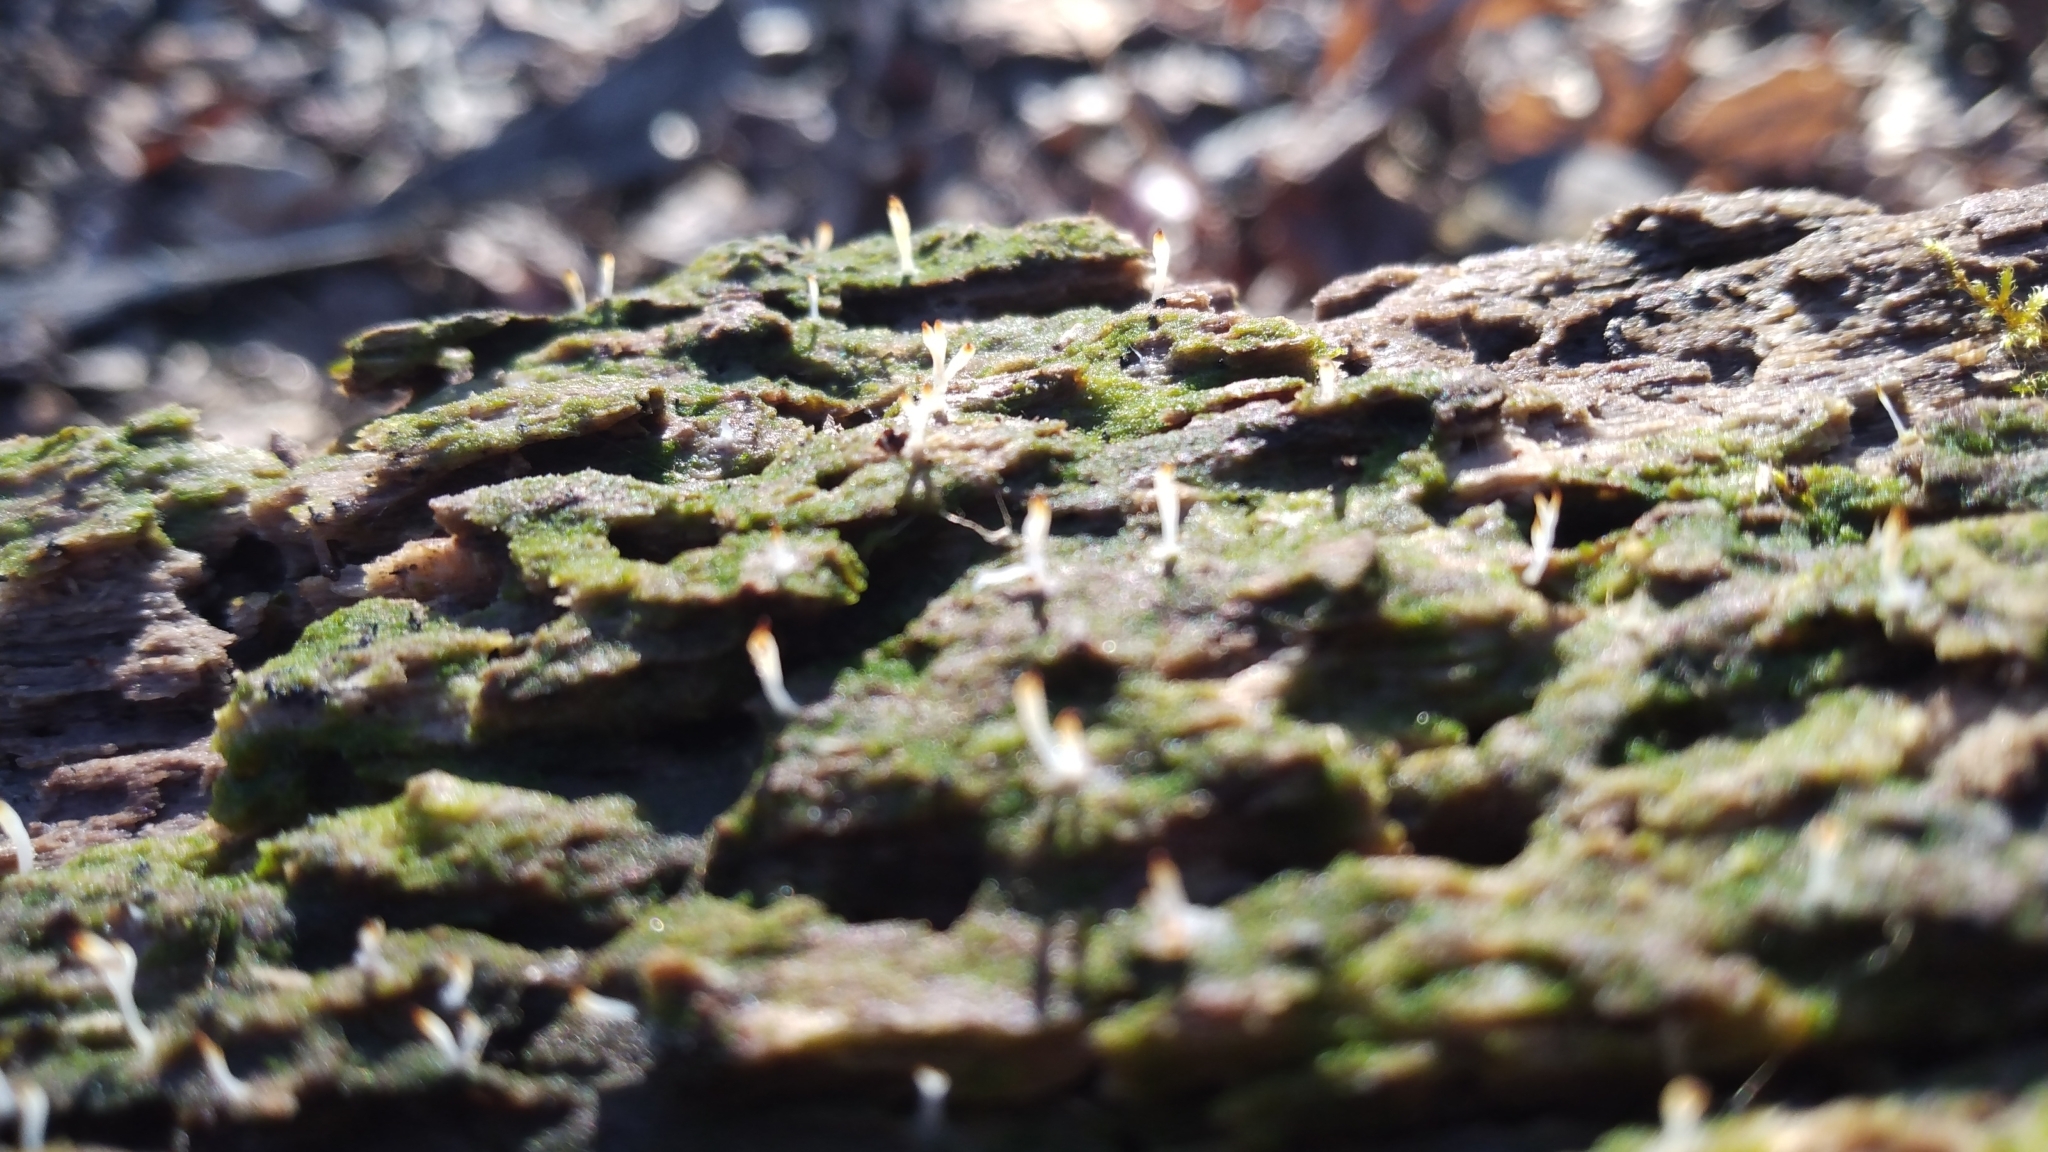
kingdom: Fungi
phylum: Basidiomycota
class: Agaricomycetes
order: Cantharellales
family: Hydnaceae
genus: Multiclavula
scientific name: Multiclavula mucida
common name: White green-algae coral
